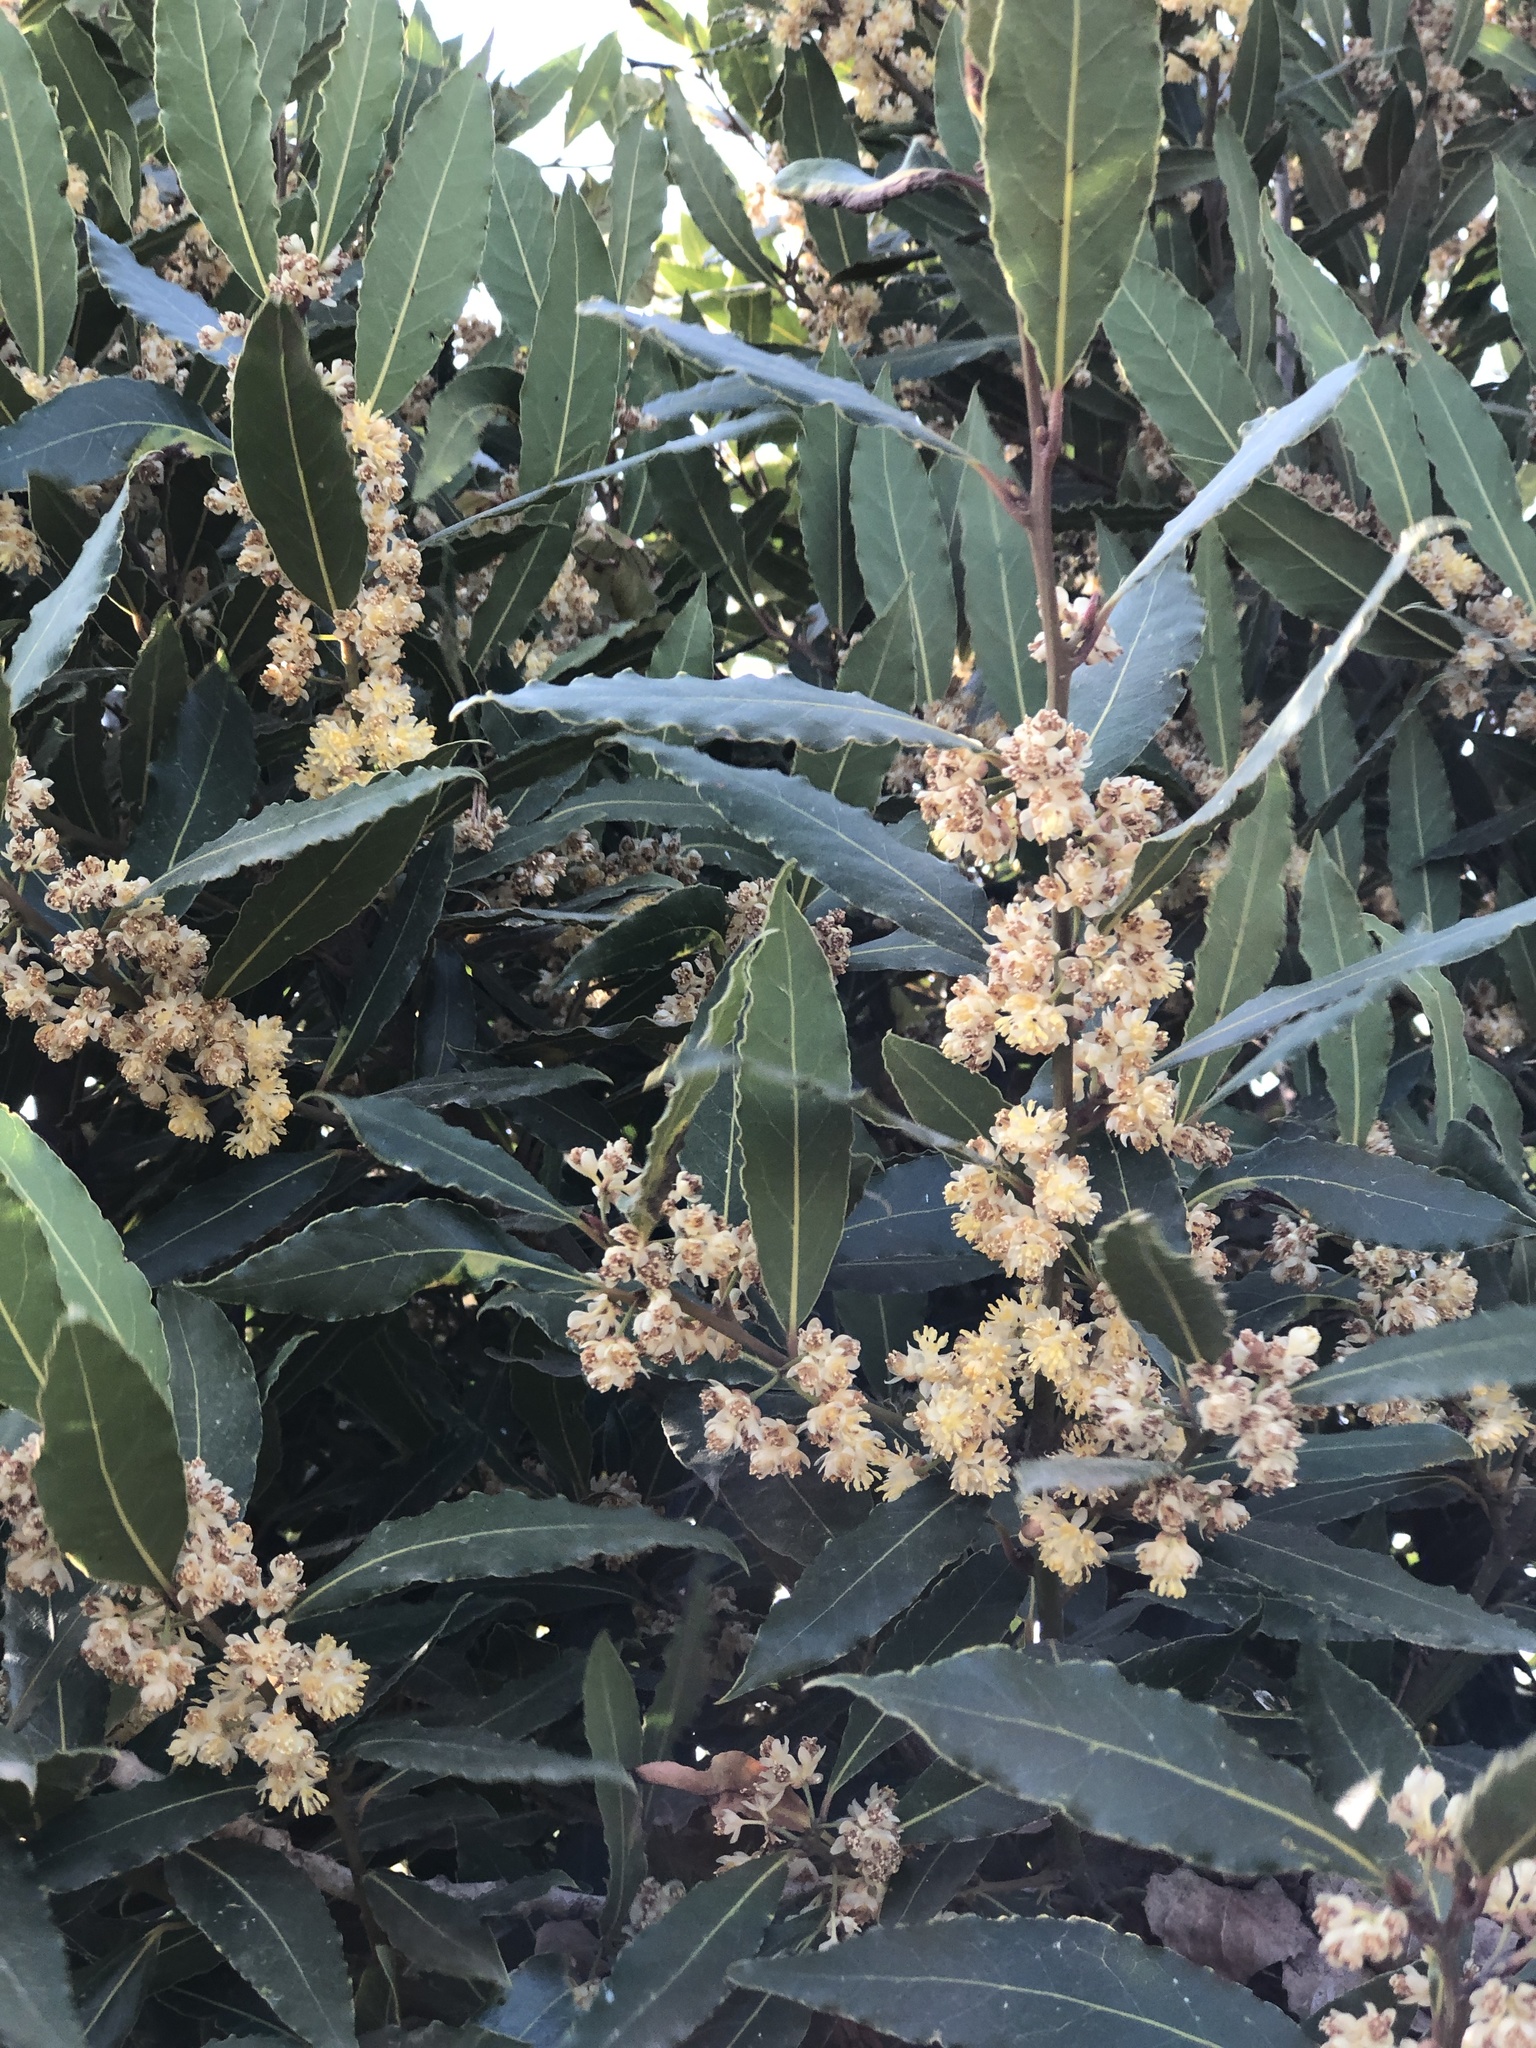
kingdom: Plantae
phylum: Tracheophyta
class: Magnoliopsida
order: Laurales
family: Lauraceae
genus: Laurus
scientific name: Laurus nobilis
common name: Bay
